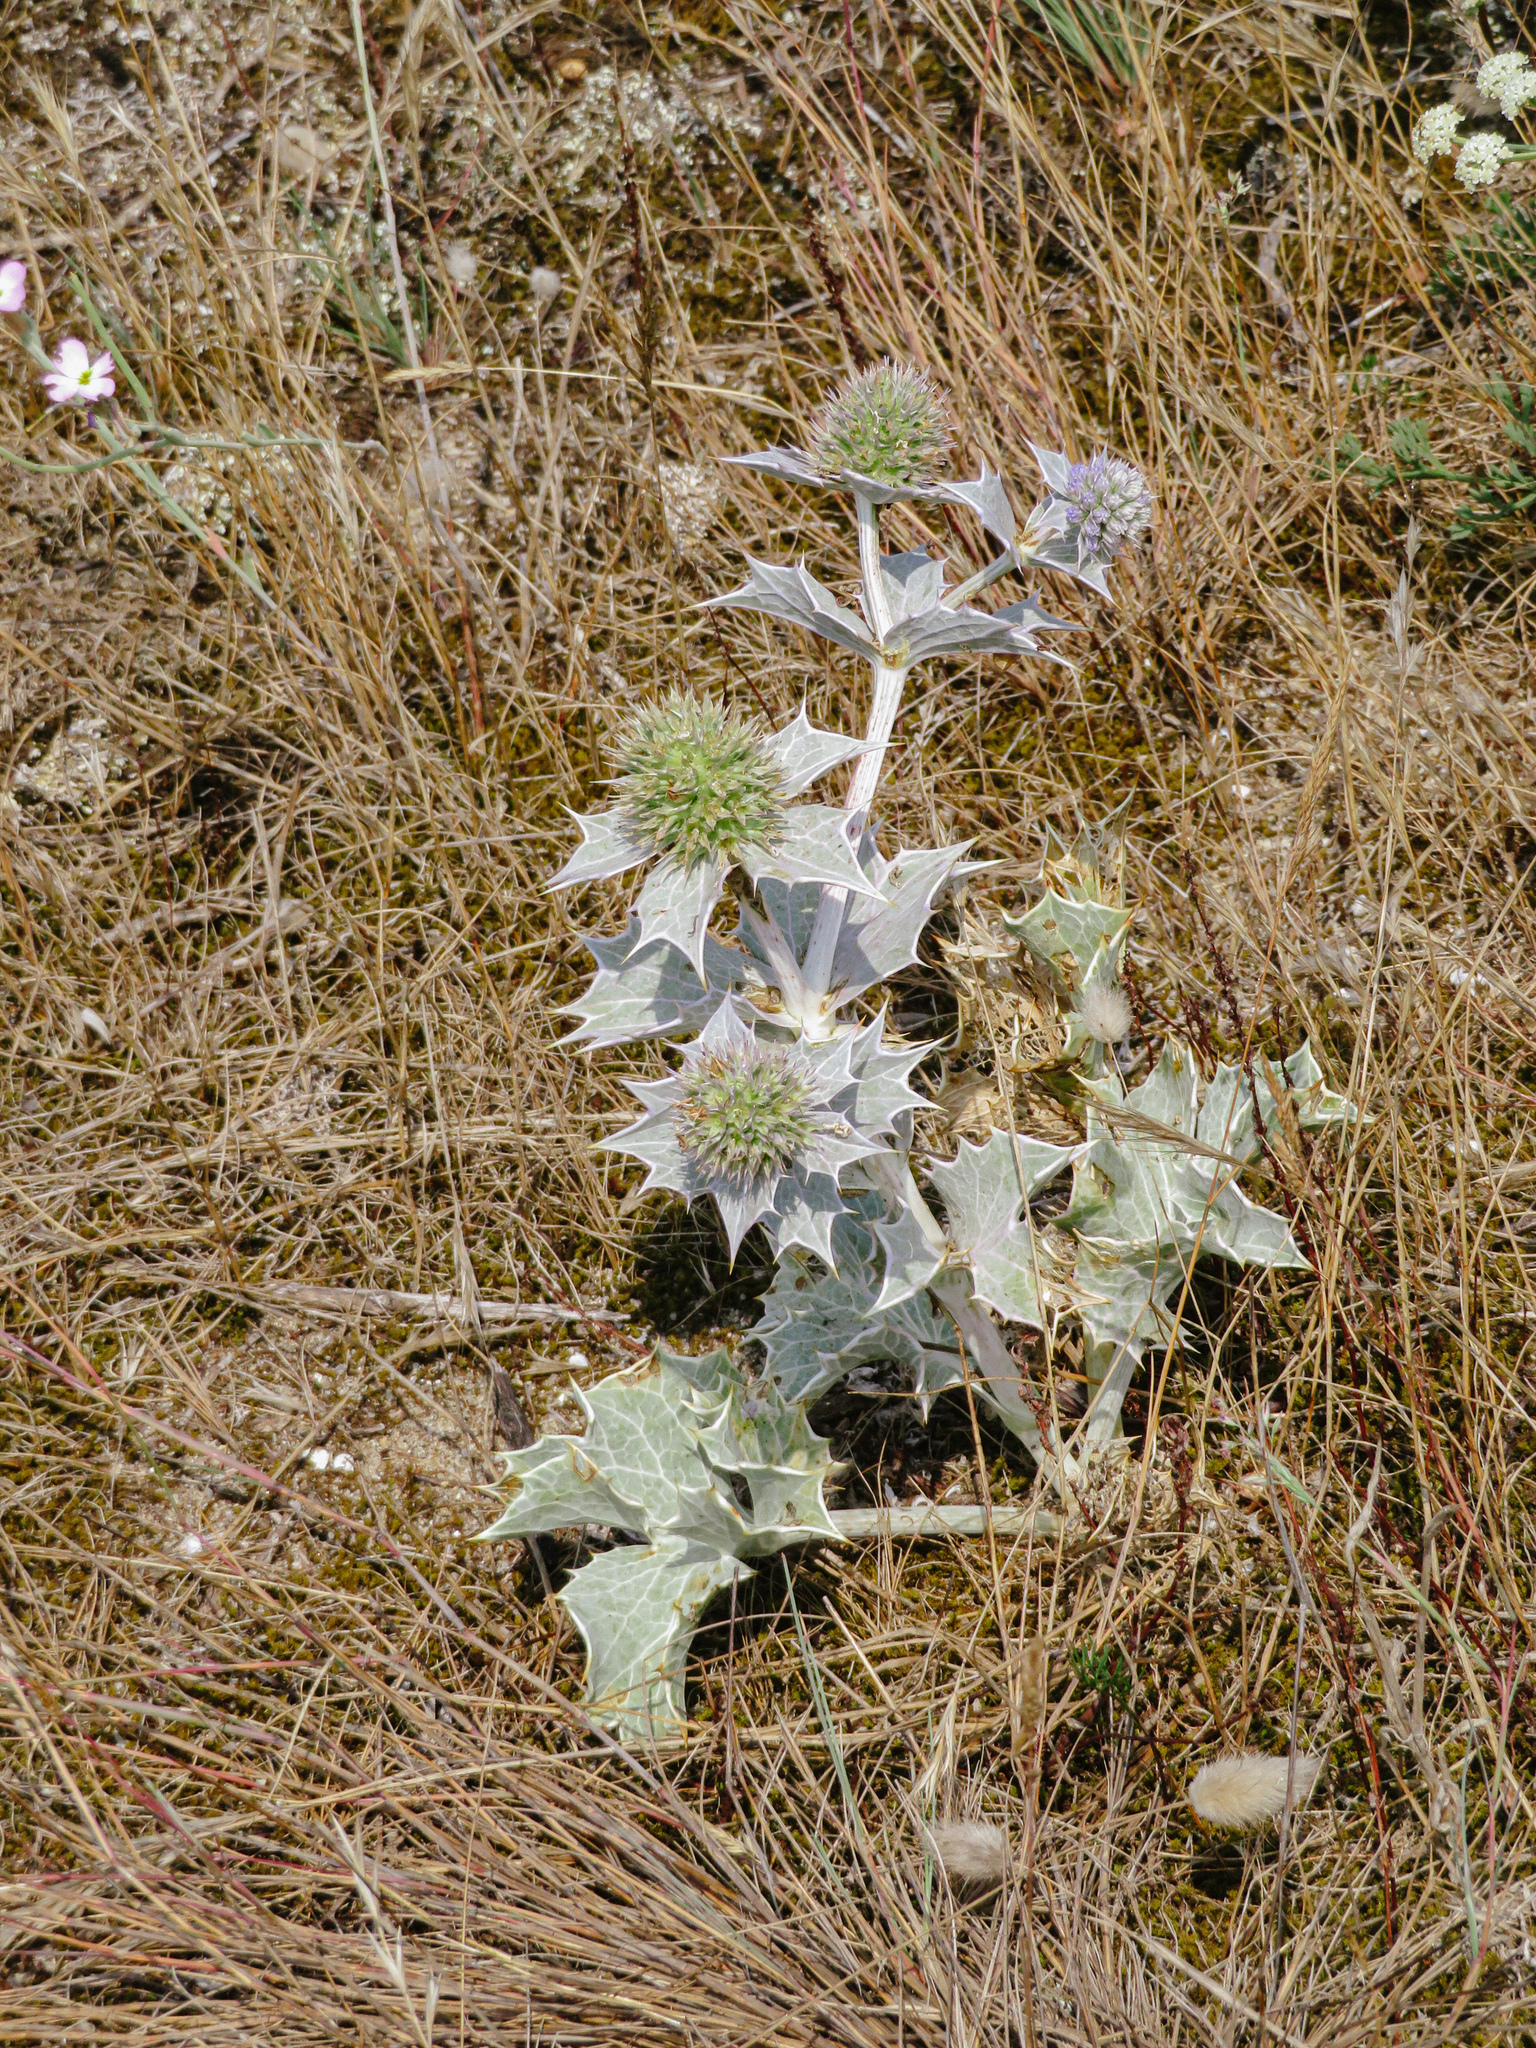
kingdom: Plantae
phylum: Tracheophyta
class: Magnoliopsida
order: Apiales
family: Apiaceae
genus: Eryngium
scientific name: Eryngium maritimum
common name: Sea-holly
